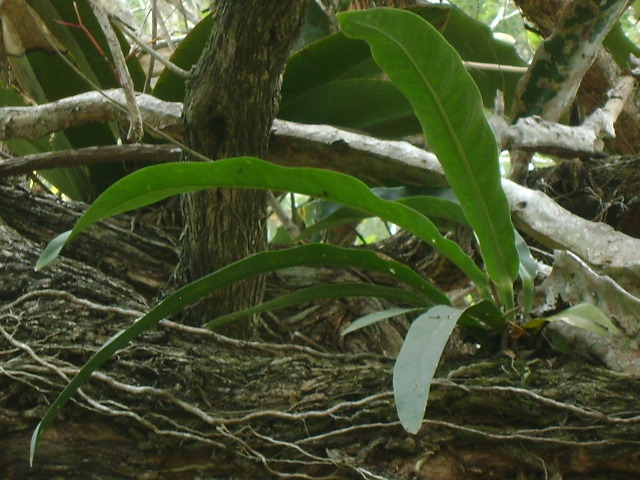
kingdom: Plantae
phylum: Tracheophyta
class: Liliopsida
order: Alismatales
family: Araceae
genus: Anthurium
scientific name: Anthurium schlechtendalii
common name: Laceleaf
